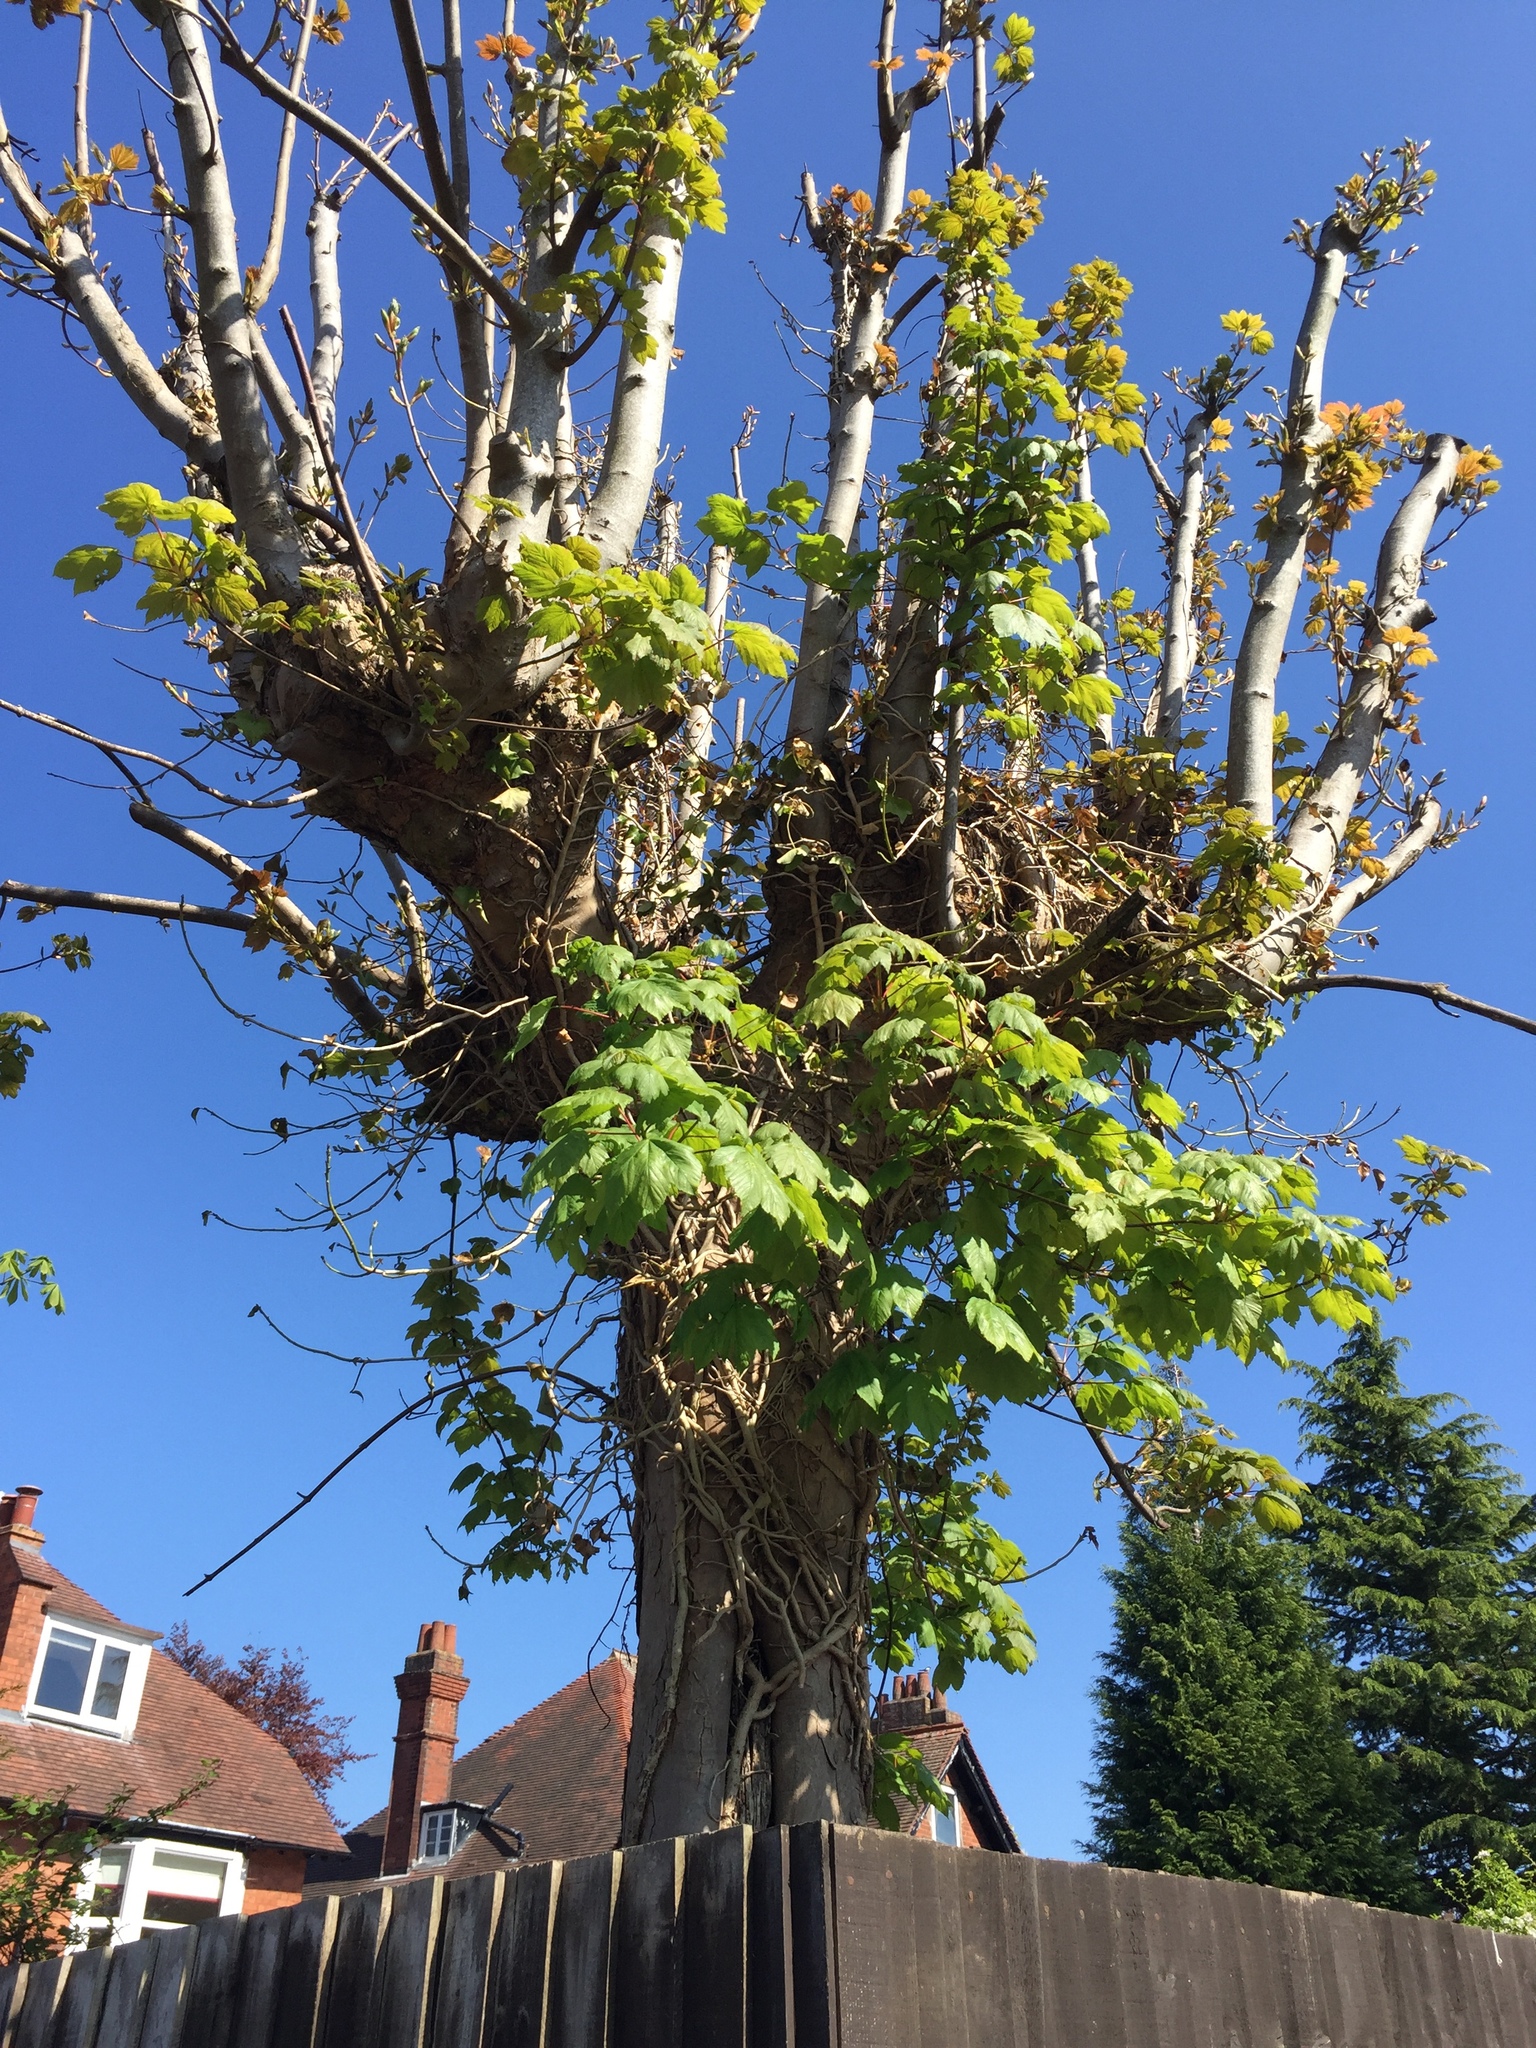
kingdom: Plantae
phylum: Tracheophyta
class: Magnoliopsida
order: Sapindales
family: Sapindaceae
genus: Acer
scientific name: Acer pseudoplatanus
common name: Sycamore
